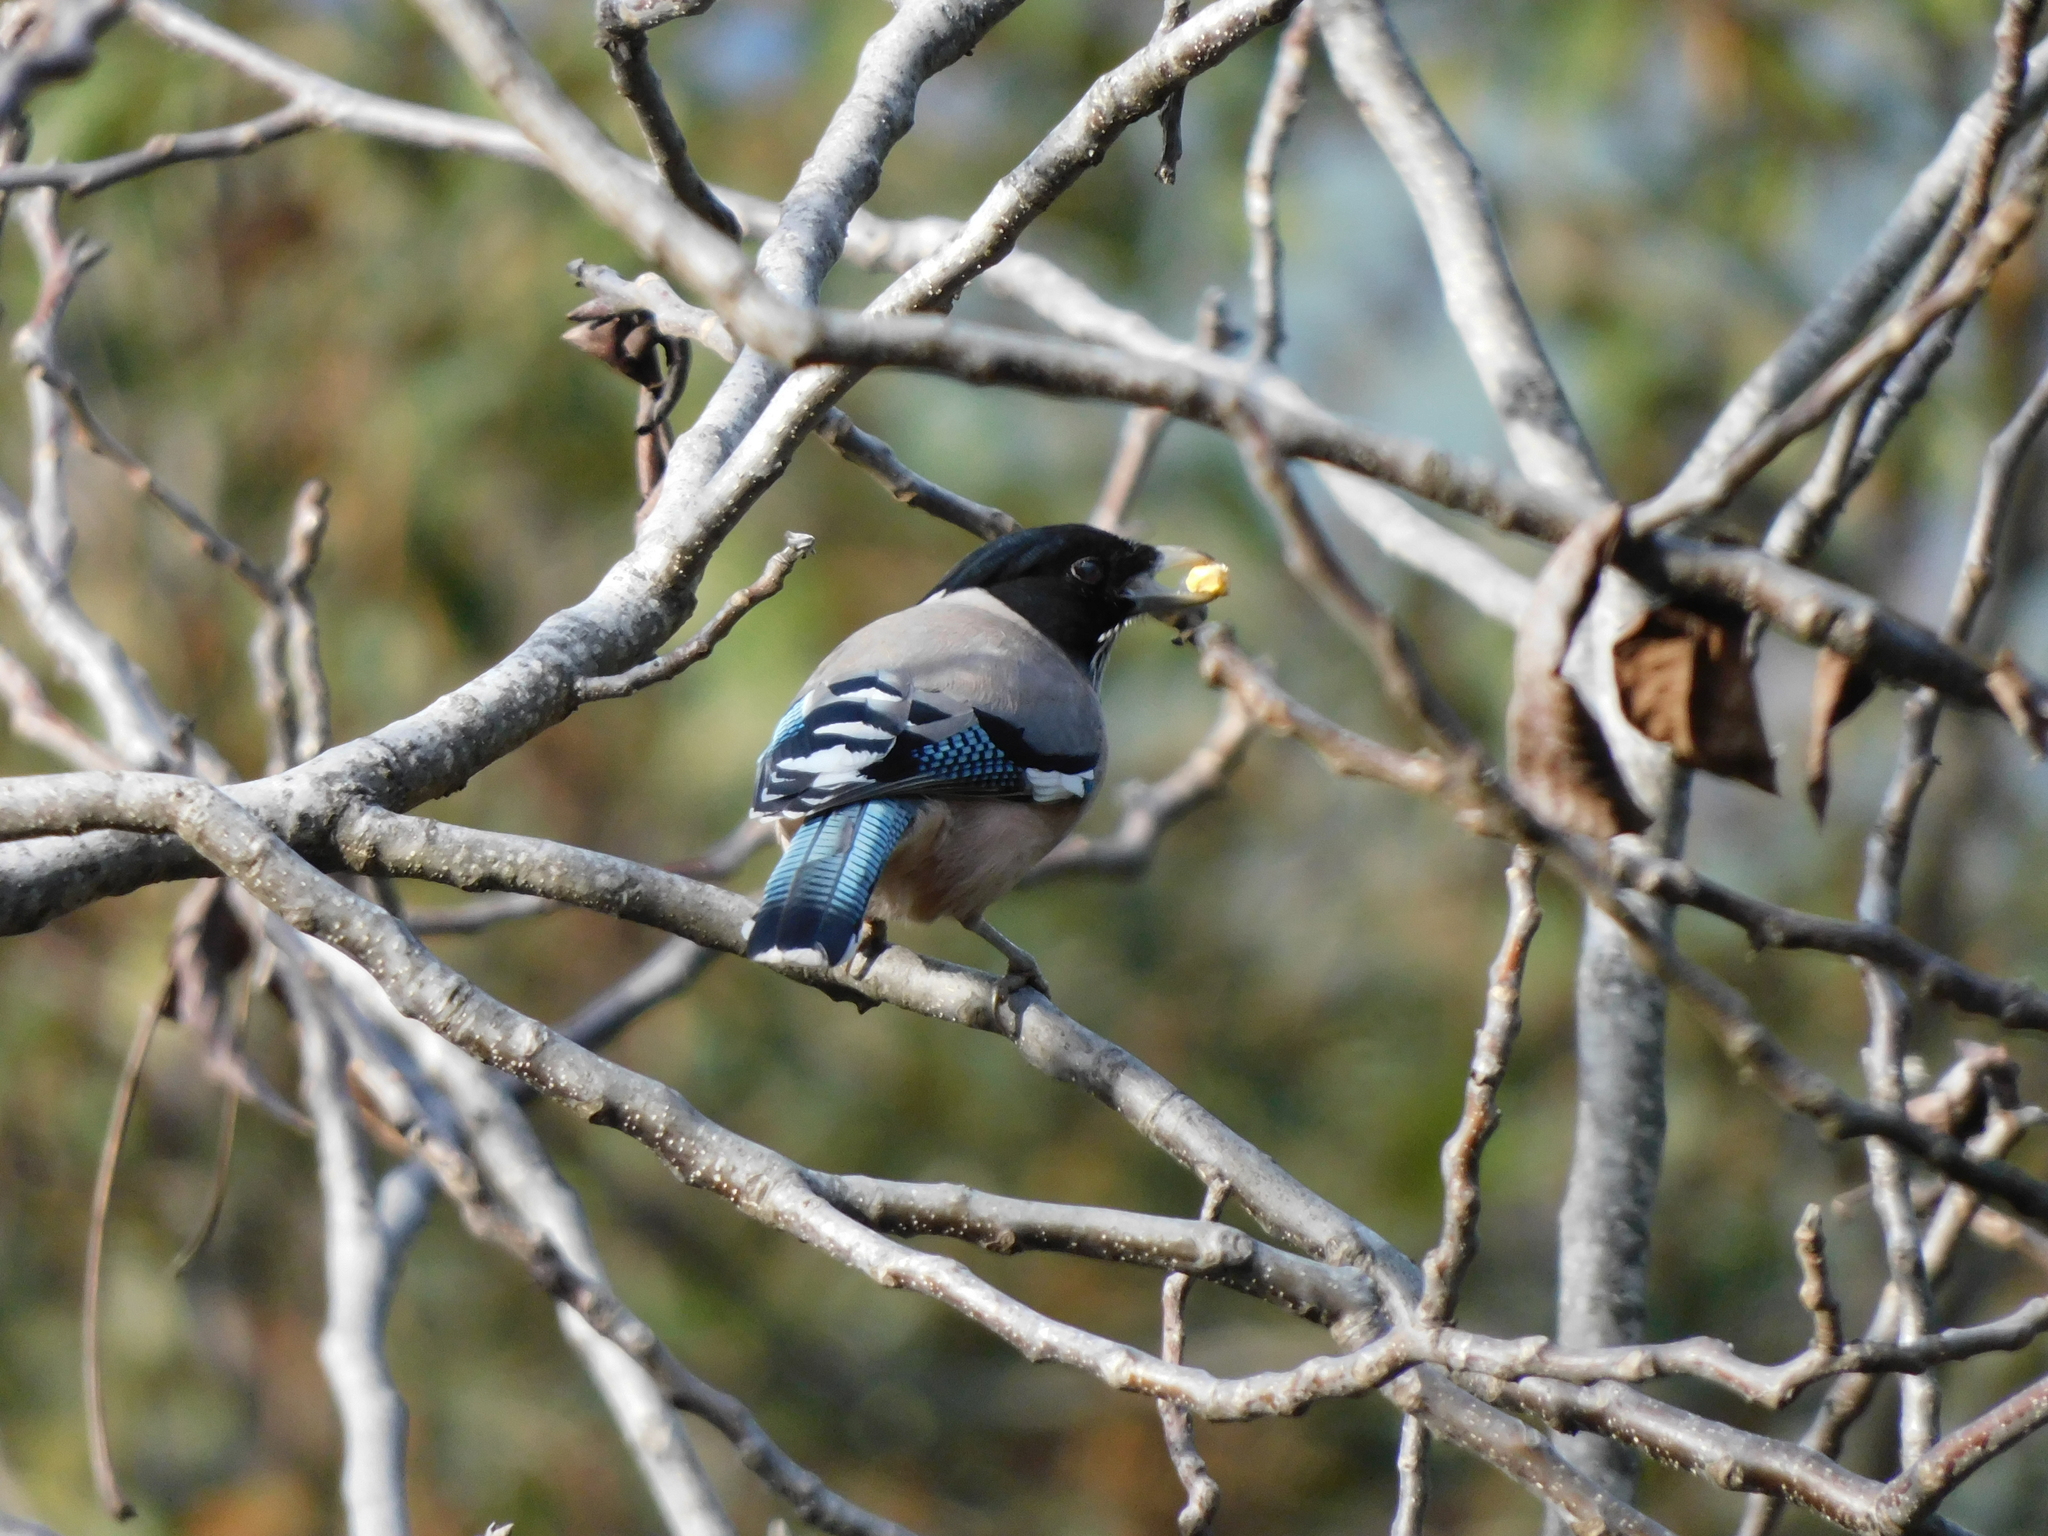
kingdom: Animalia
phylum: Chordata
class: Aves
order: Passeriformes
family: Corvidae
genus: Garrulus
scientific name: Garrulus lanceolatus
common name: Black-headed jay
